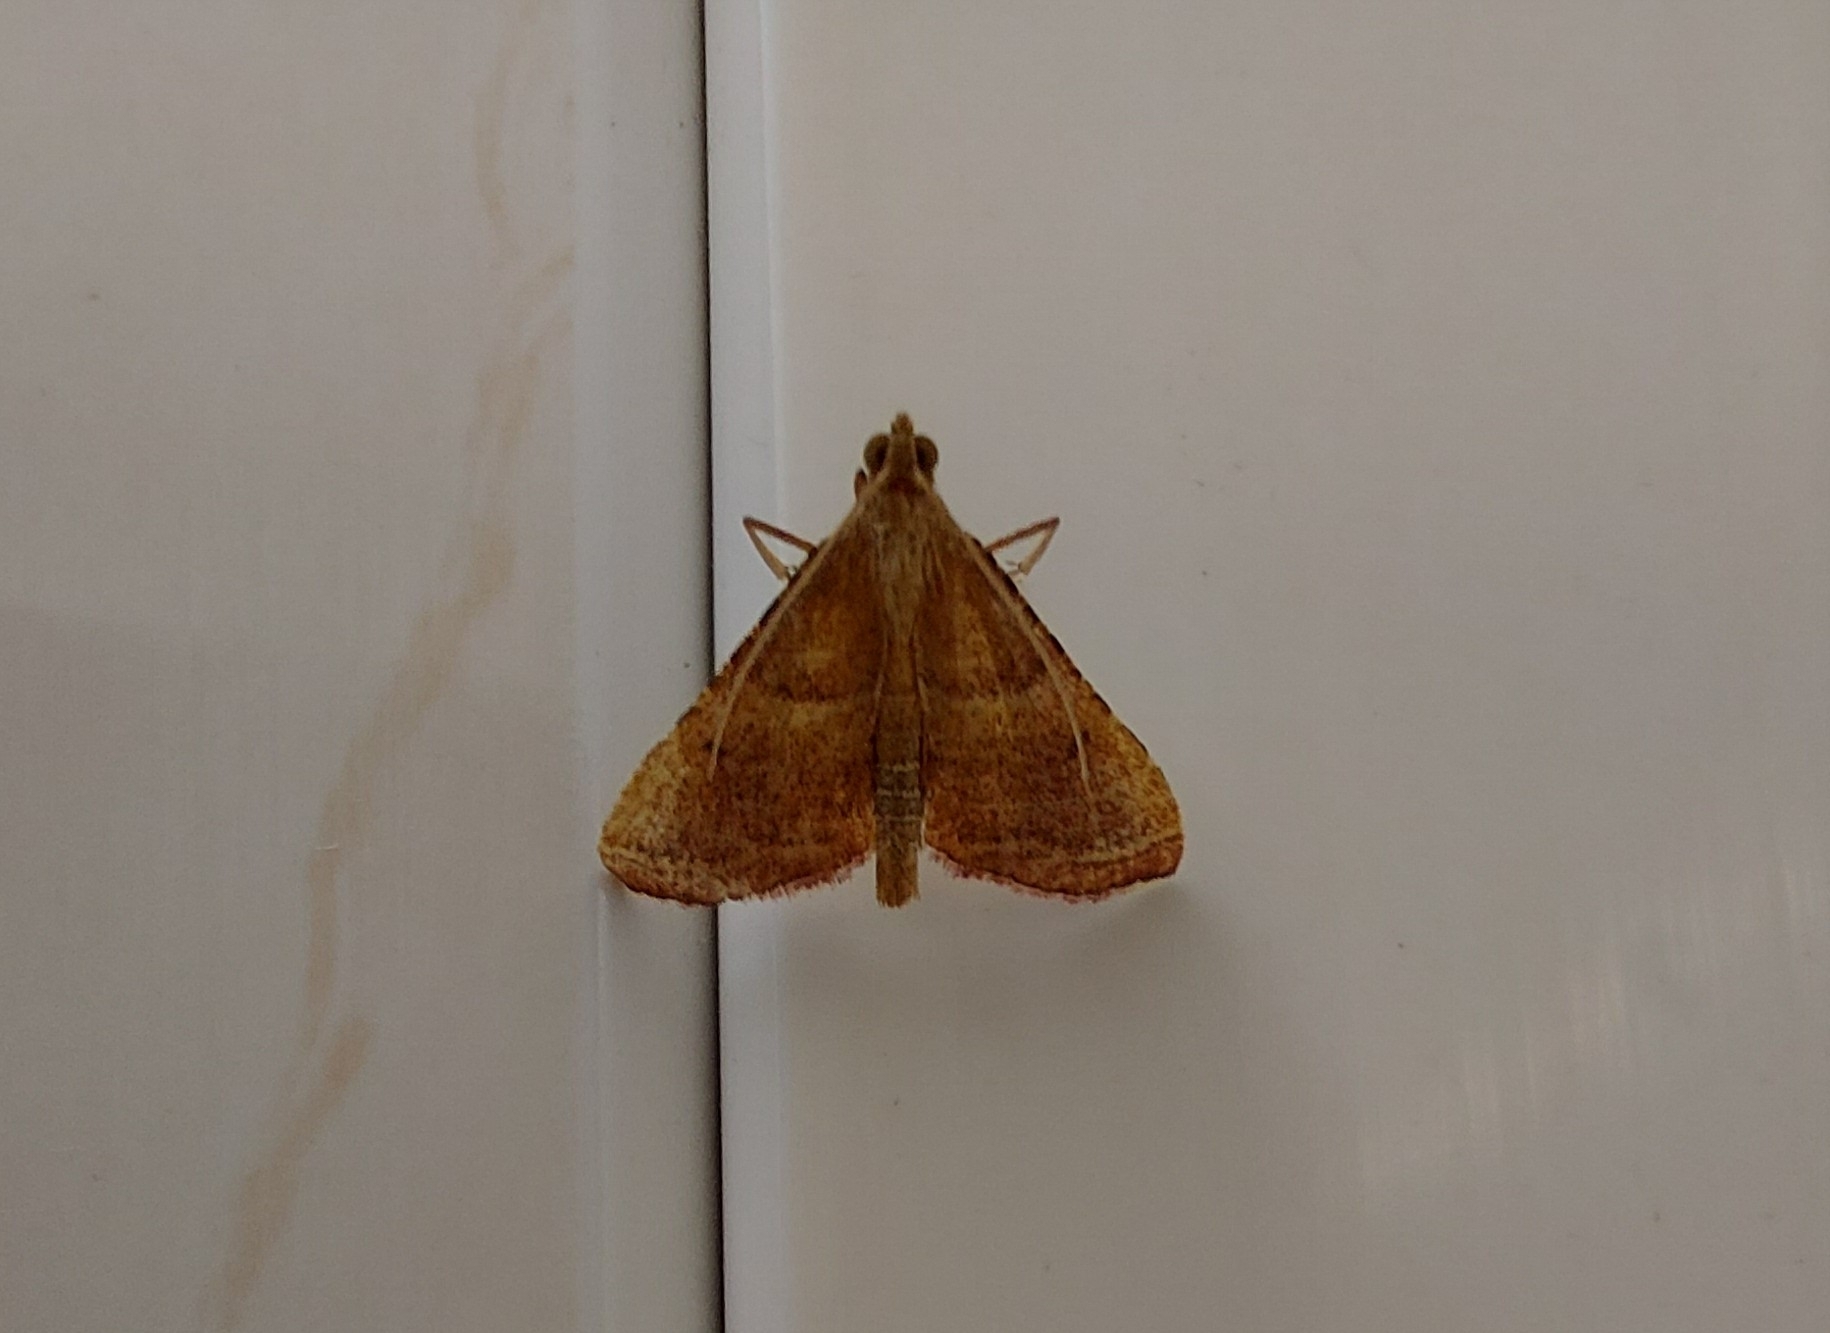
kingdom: Animalia
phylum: Arthropoda
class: Insecta
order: Lepidoptera
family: Pyralidae
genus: Endotricha
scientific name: Endotricha flammealis
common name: Rosy tabby
